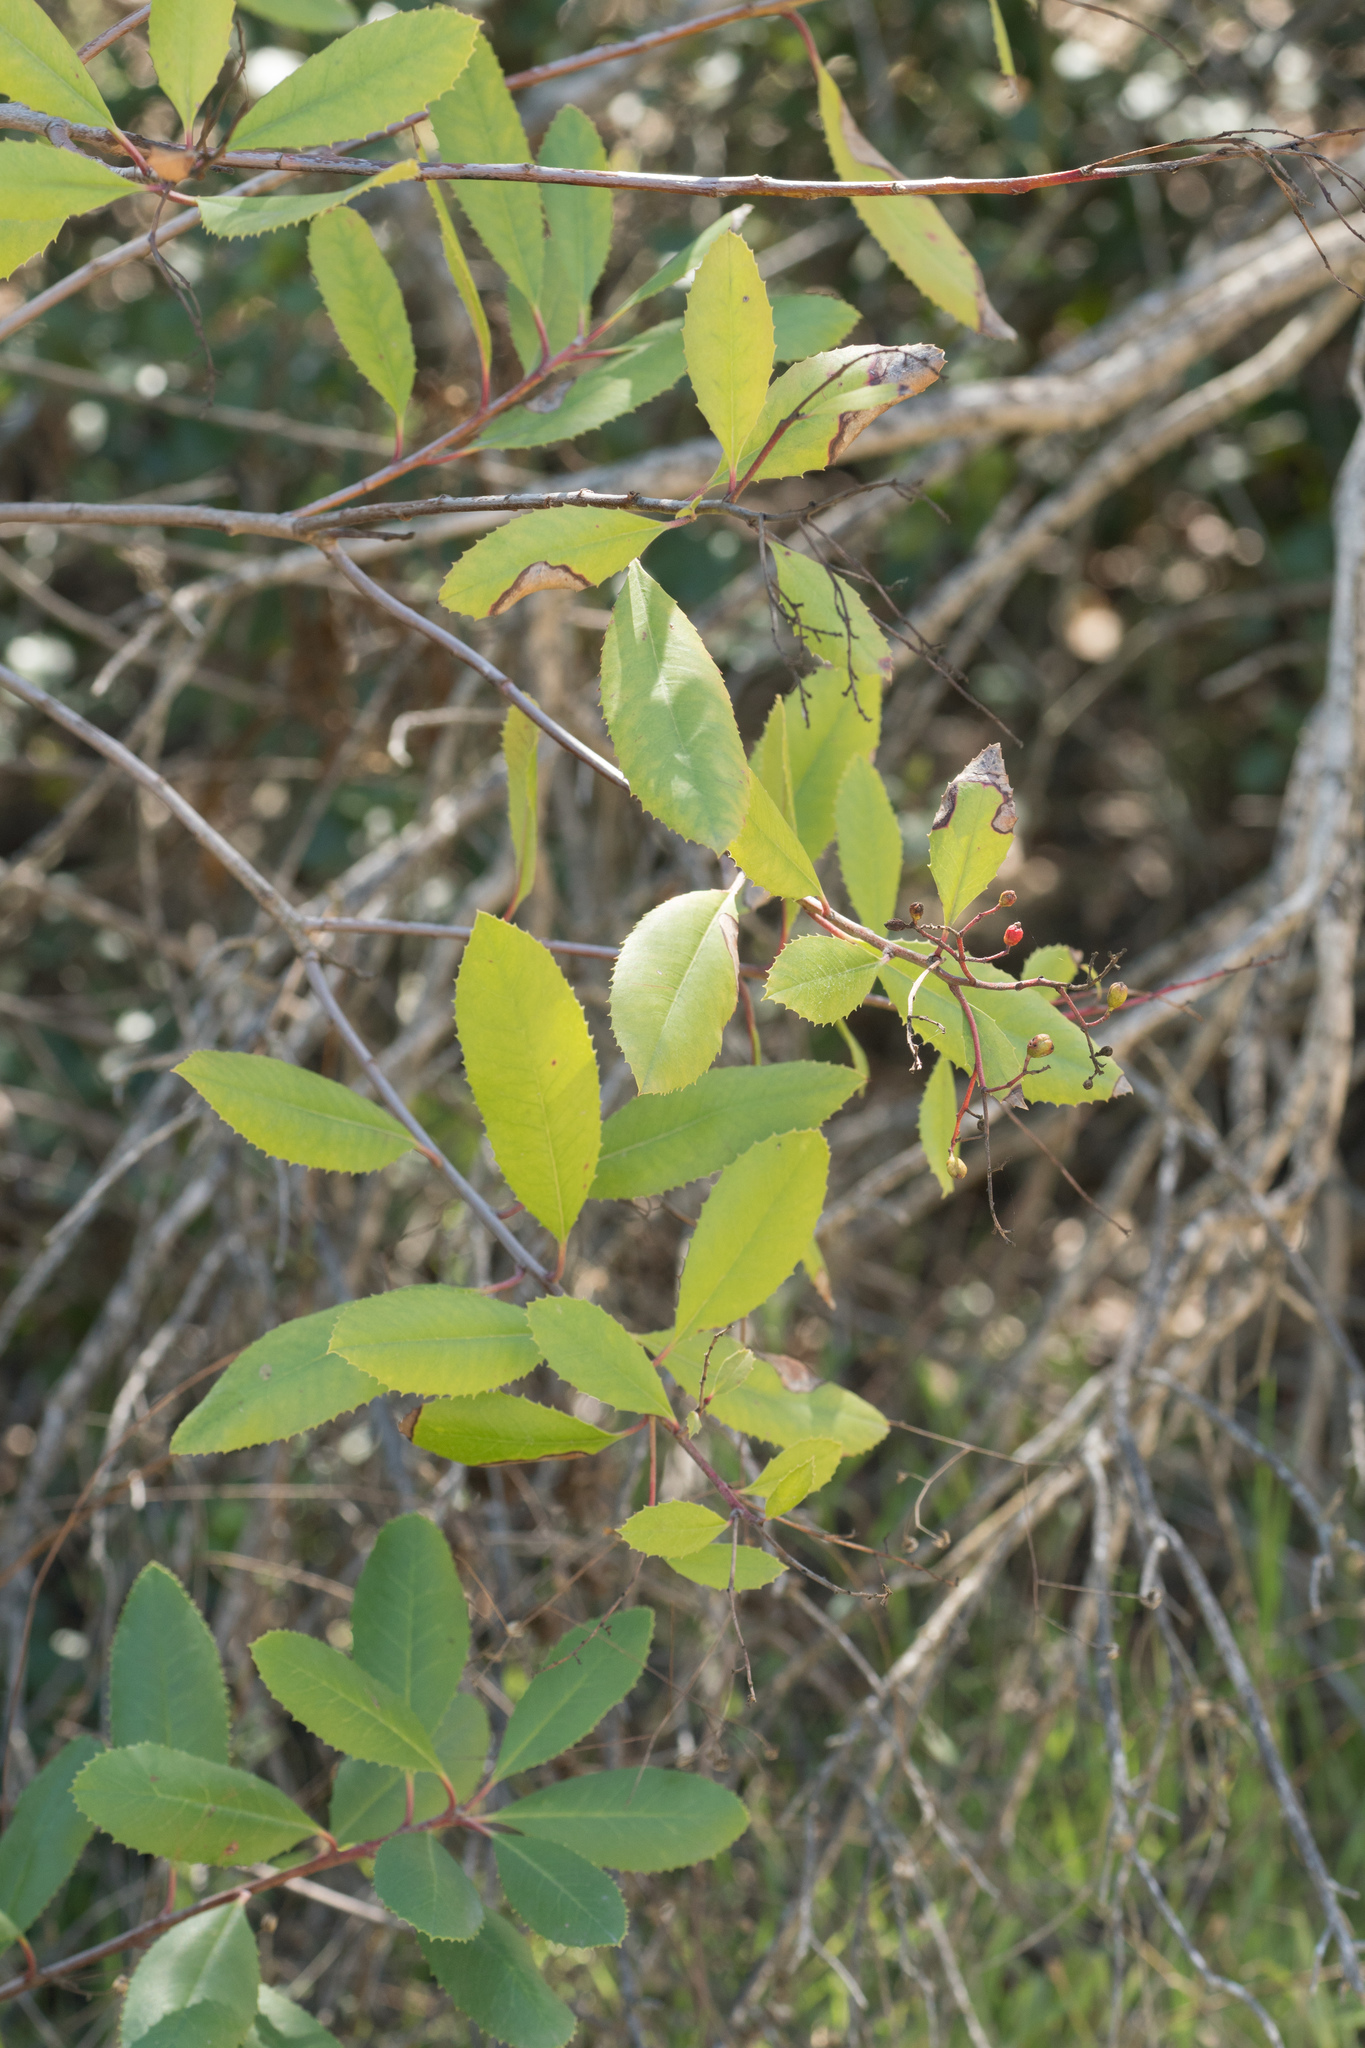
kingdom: Plantae
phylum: Tracheophyta
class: Magnoliopsida
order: Rosales
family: Rosaceae
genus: Heteromeles
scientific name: Heteromeles arbutifolia
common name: California-holly
